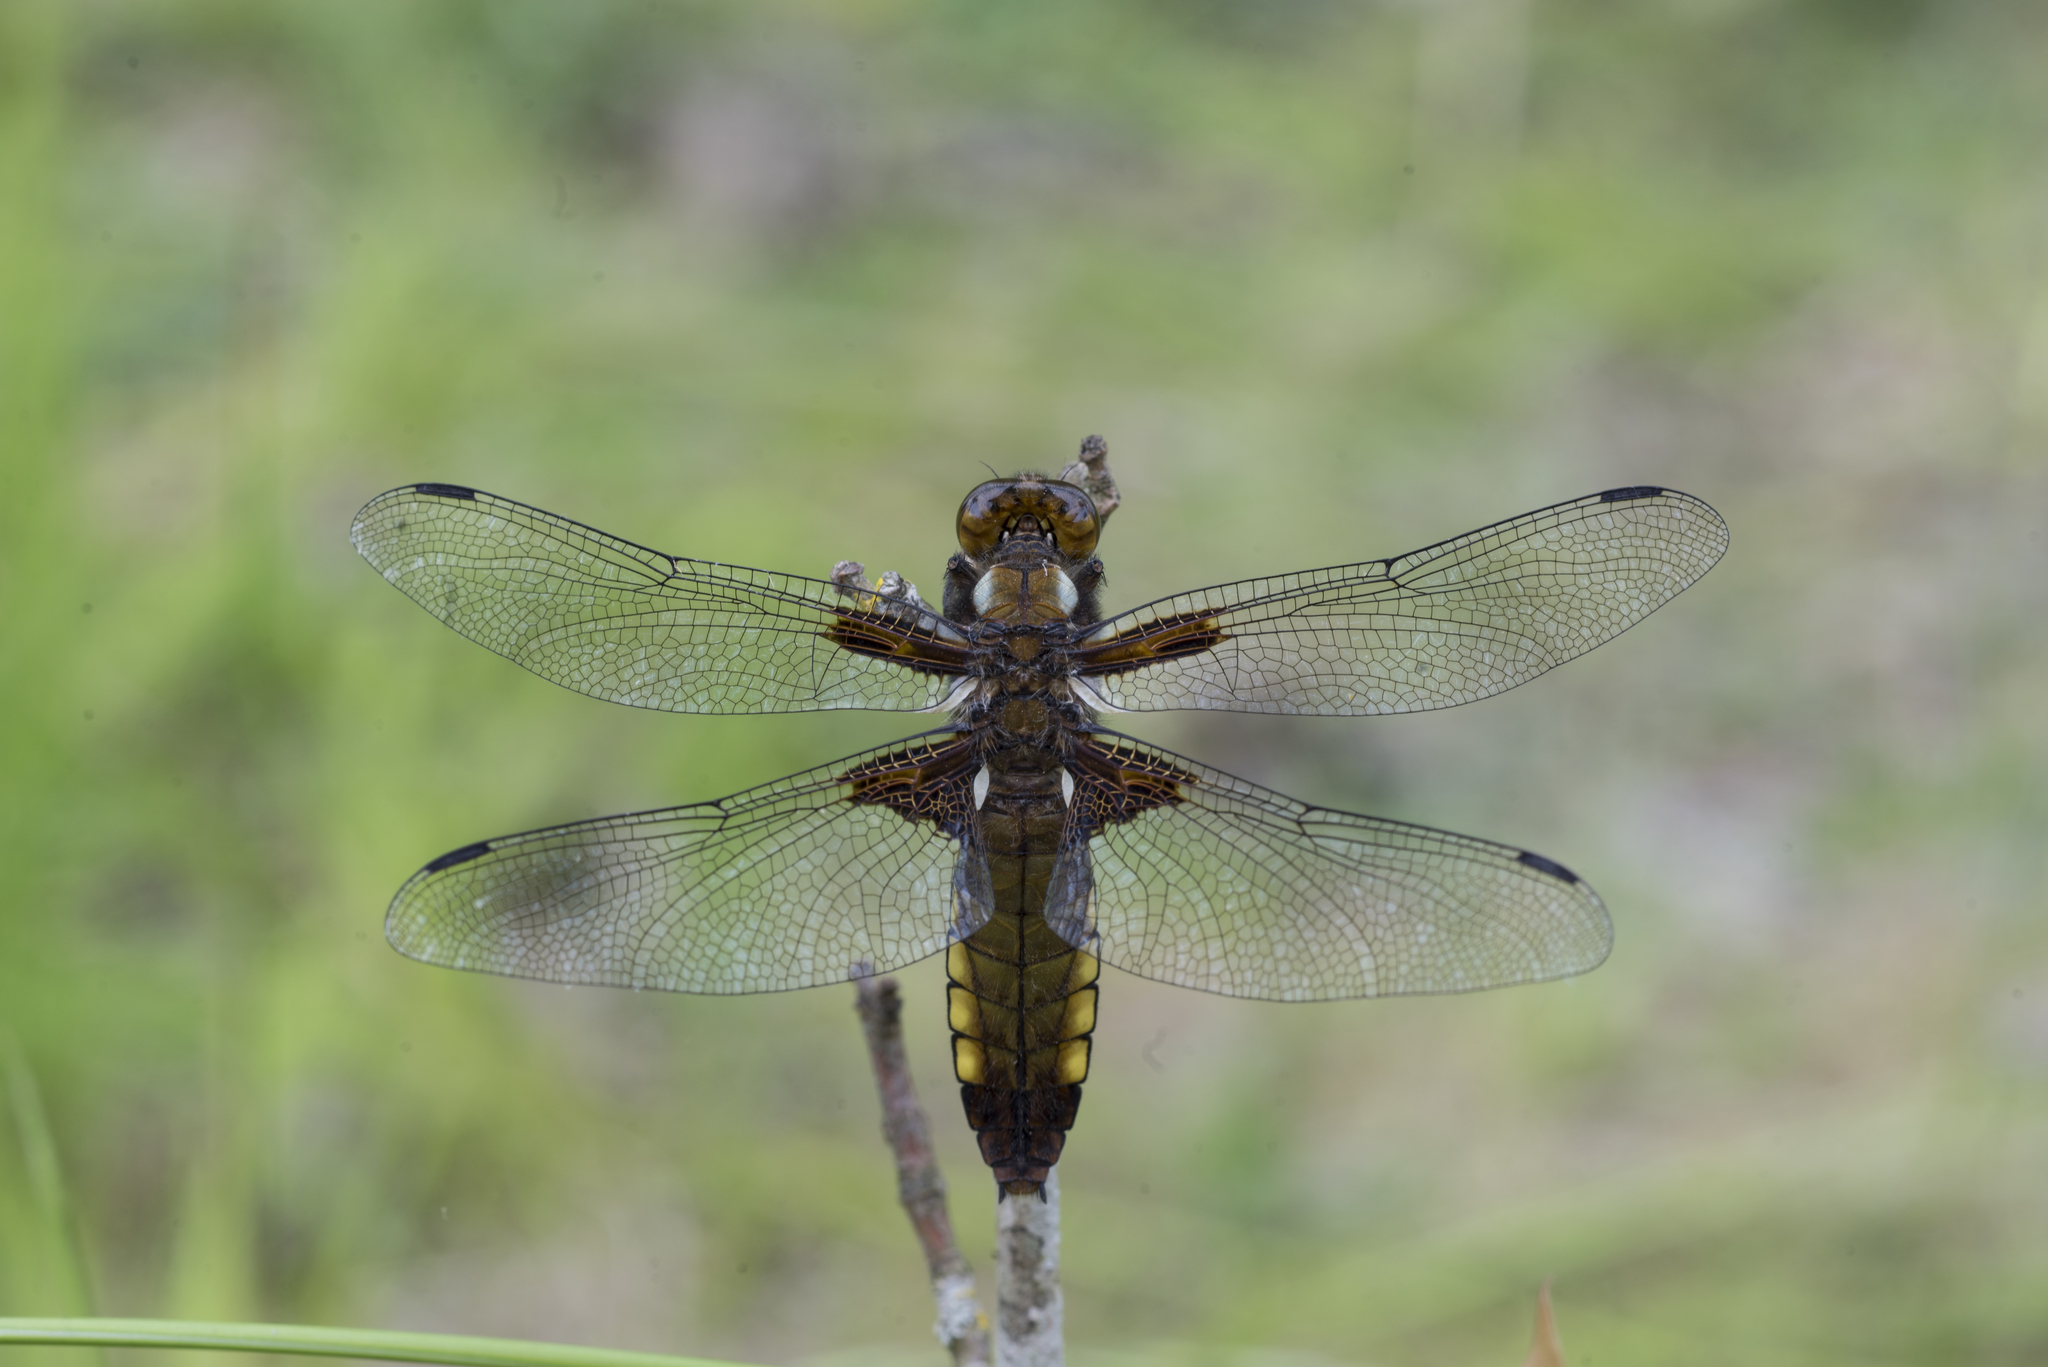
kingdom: Animalia
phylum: Arthropoda
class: Insecta
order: Odonata
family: Libellulidae
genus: Libellula
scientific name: Libellula depressa
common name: Broad-bodied chaser
